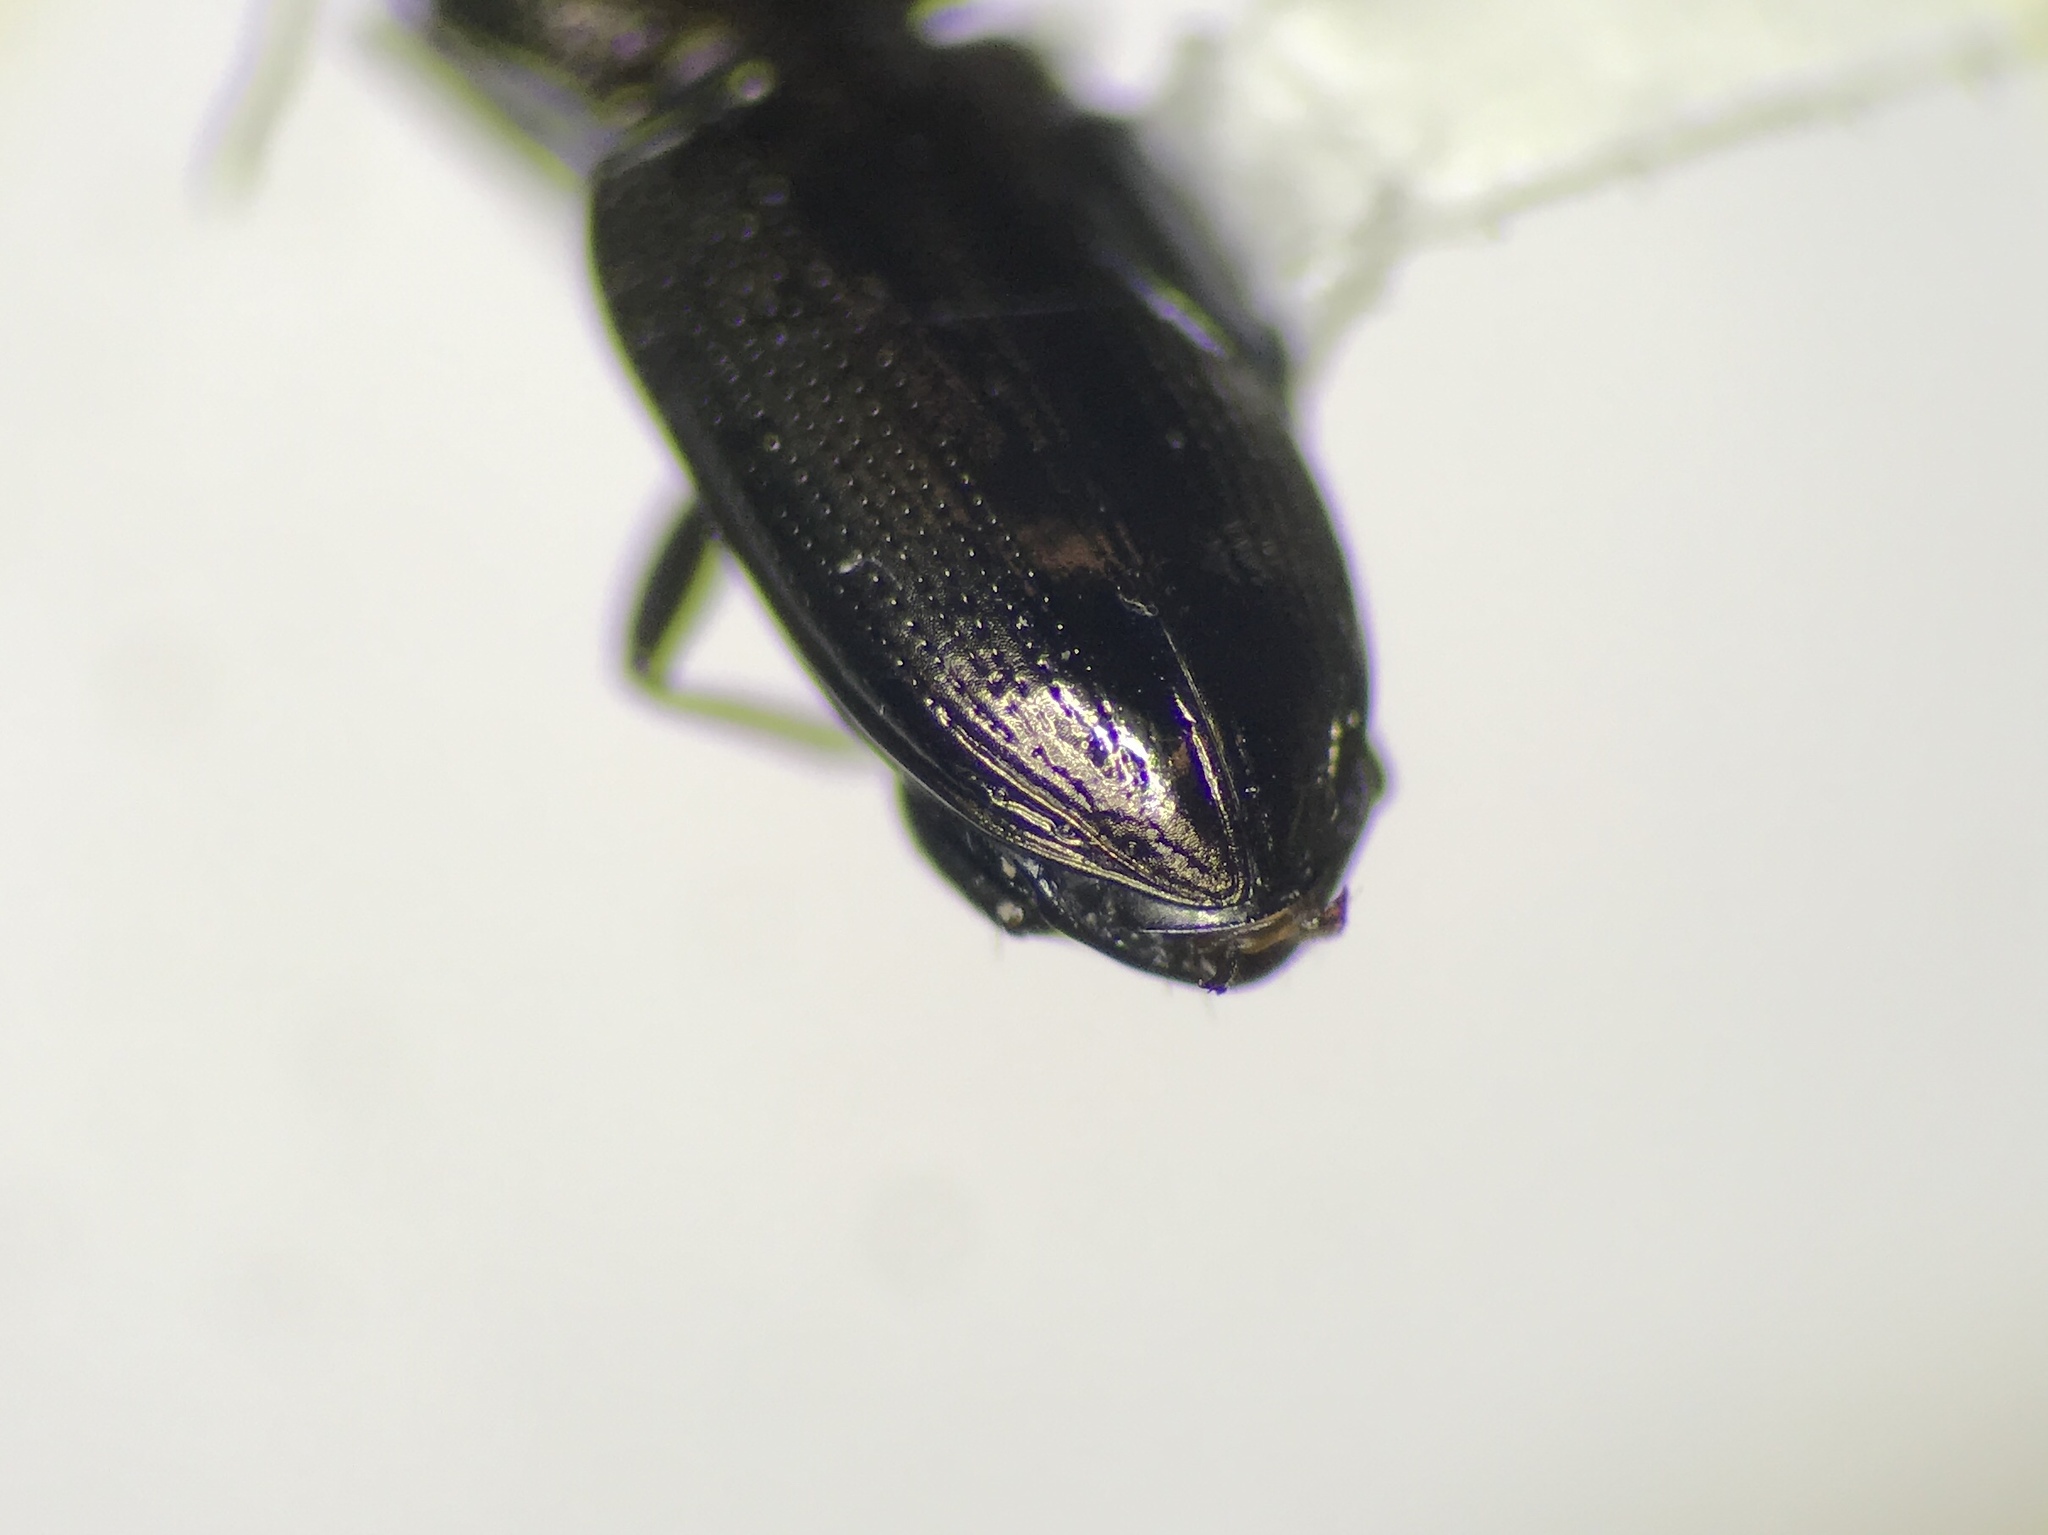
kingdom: Animalia
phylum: Arthropoda
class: Insecta
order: Coleoptera
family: Carabidae
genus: Notiophilus
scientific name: Notiophilus semistriatus
